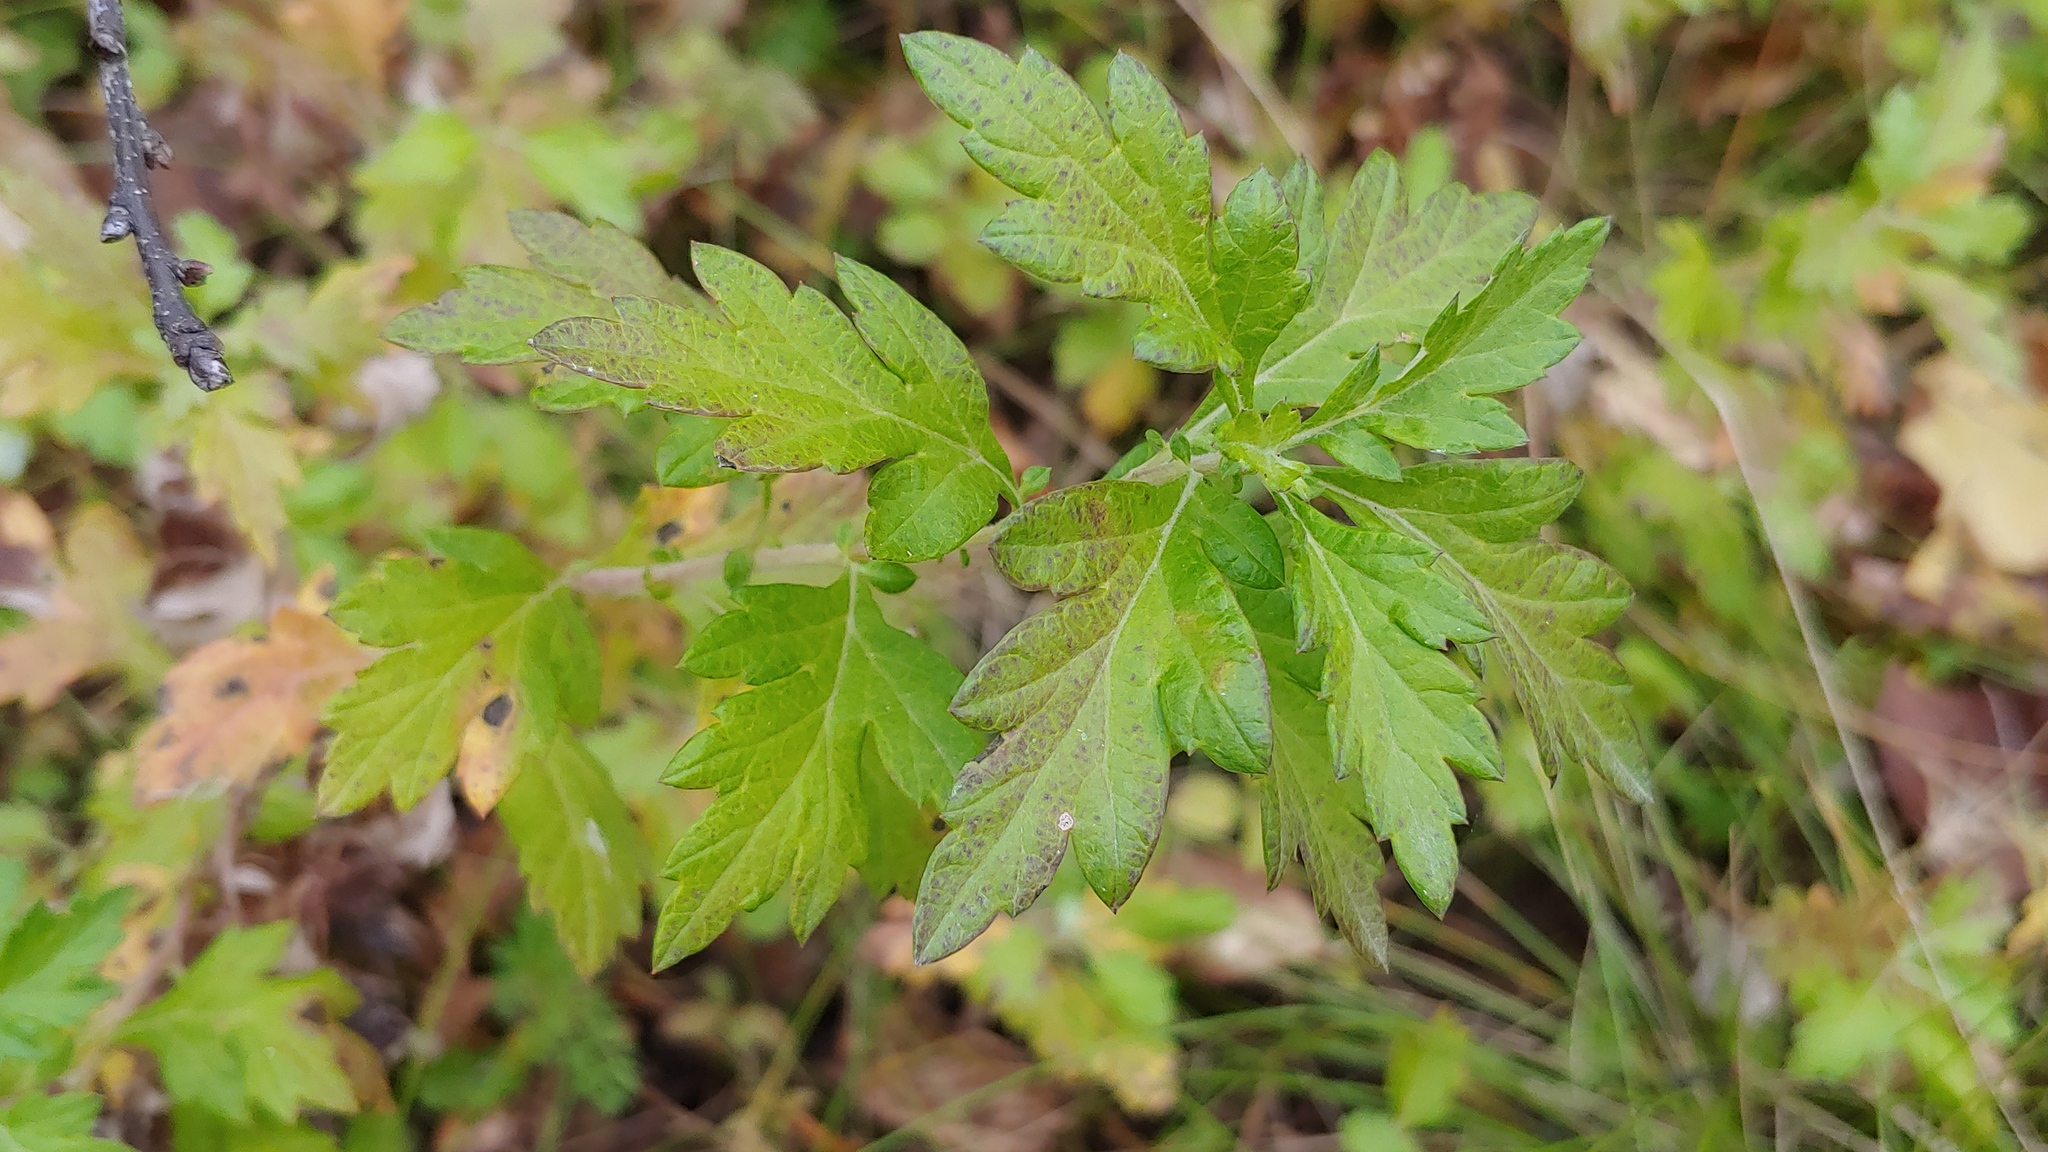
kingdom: Plantae
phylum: Tracheophyta
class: Magnoliopsida
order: Asterales
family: Asteraceae
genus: Artemisia
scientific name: Artemisia vulgaris
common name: Mugwort
